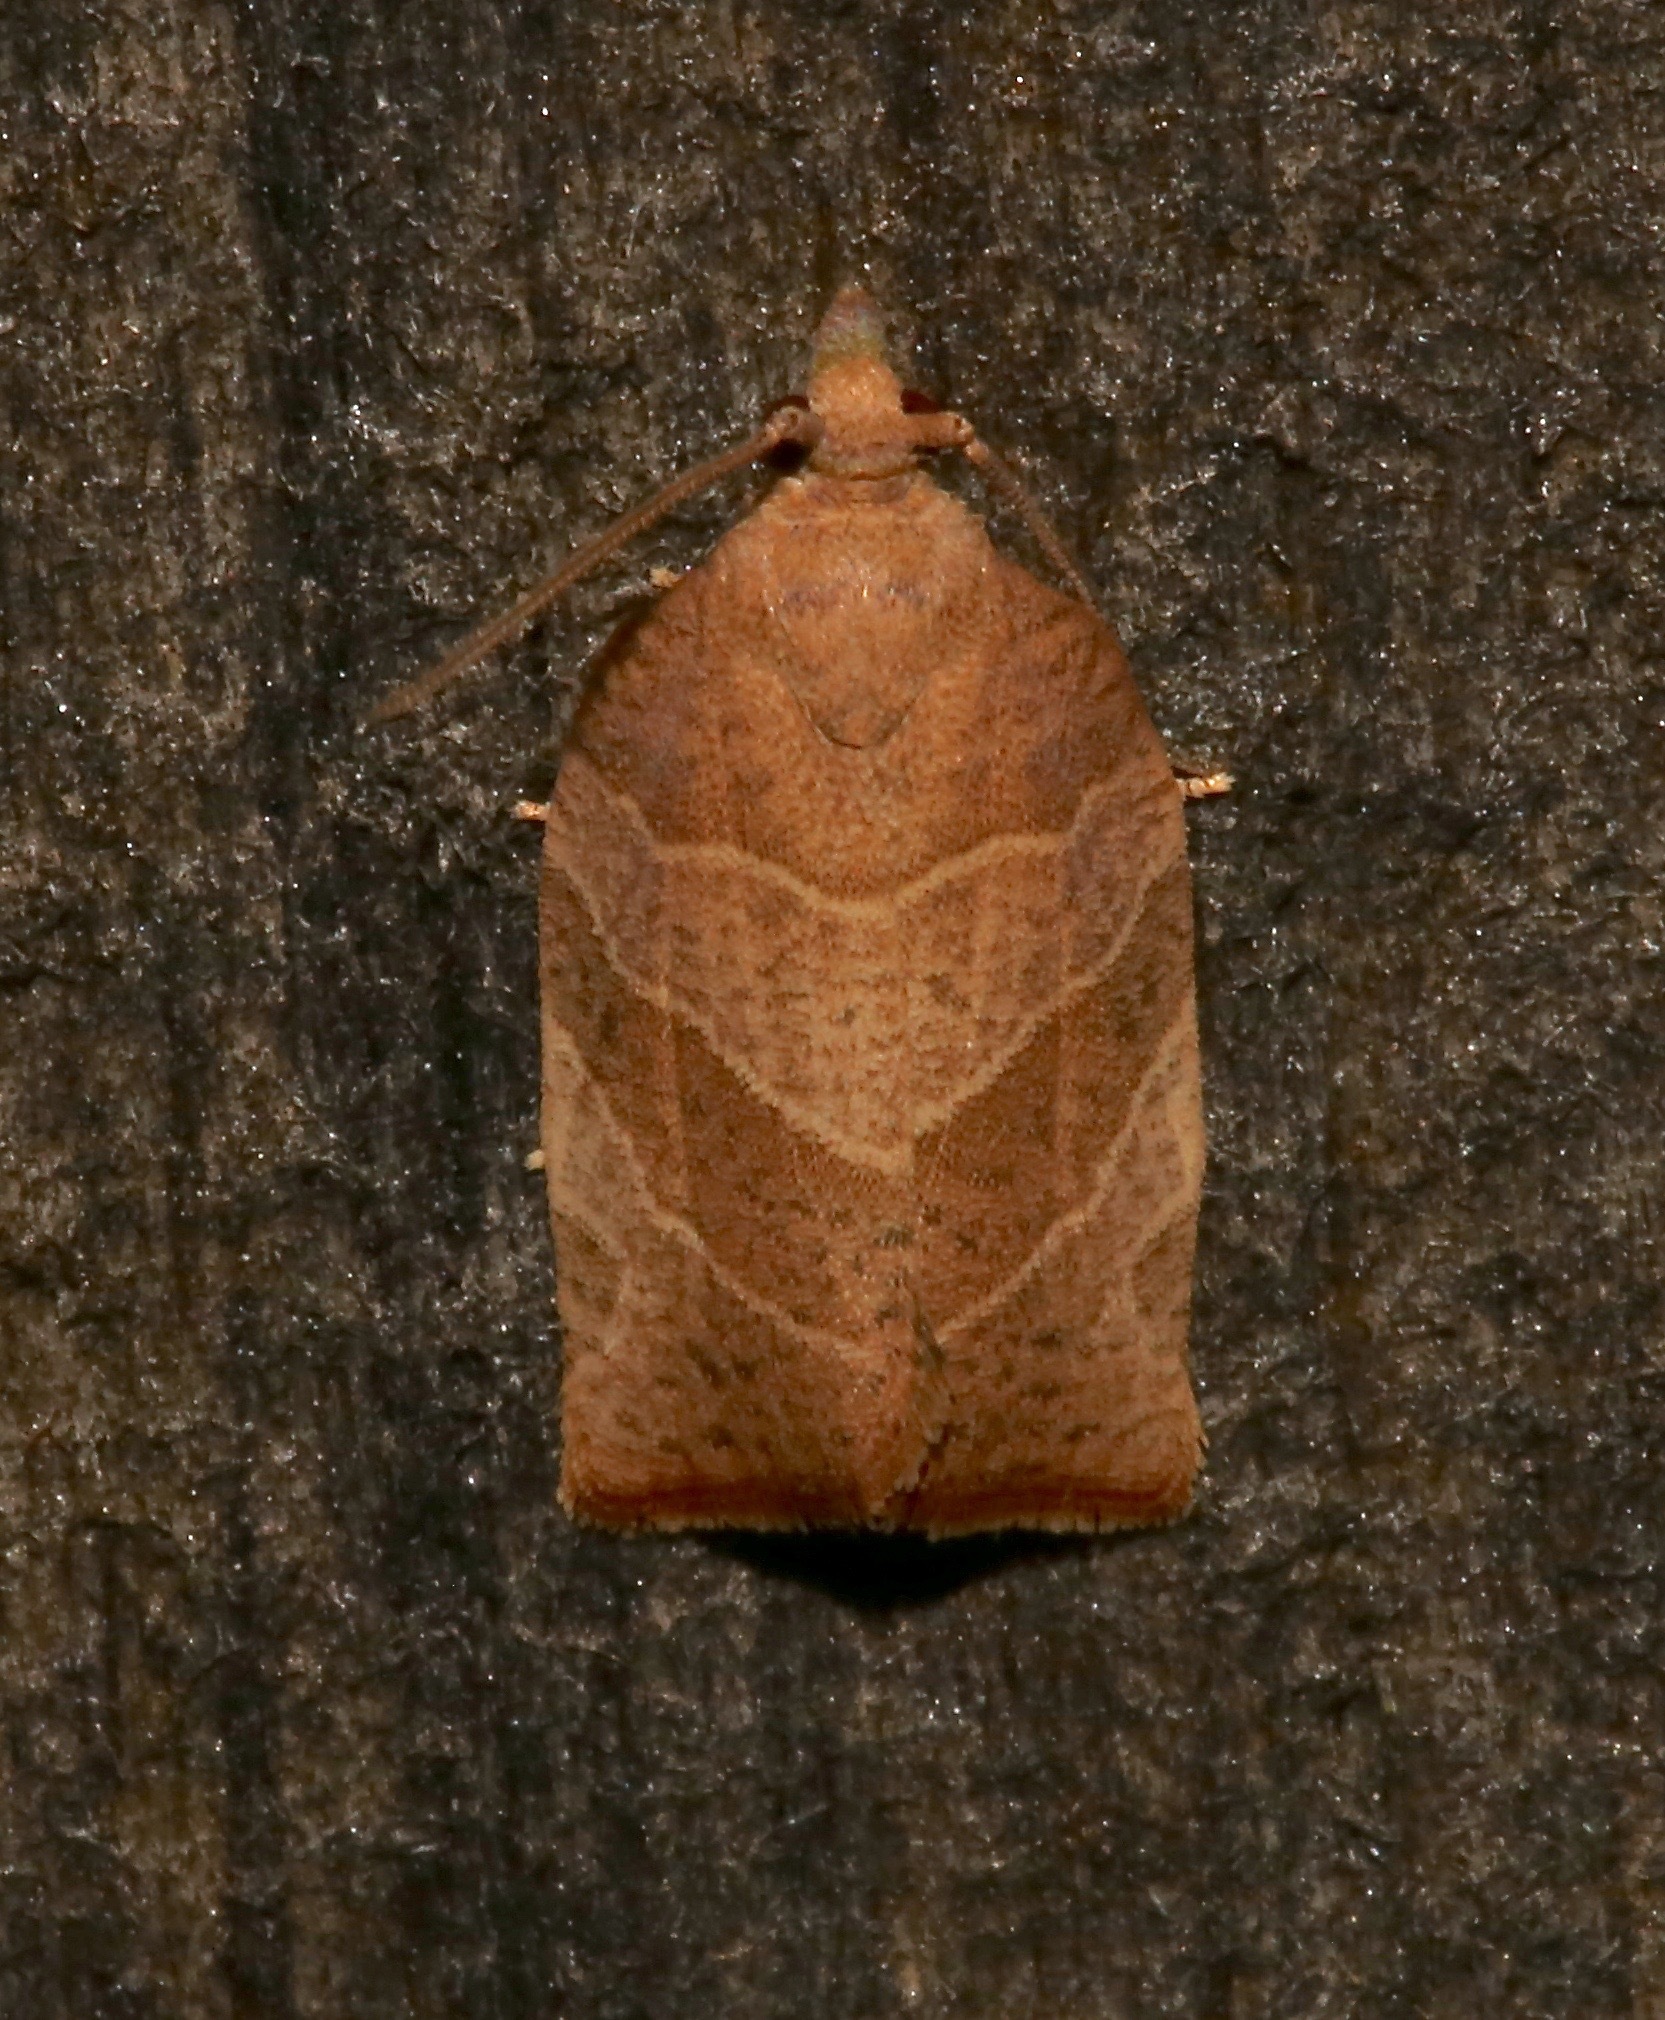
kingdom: Animalia
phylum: Arthropoda
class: Insecta
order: Lepidoptera
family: Tortricidae
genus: Pandemis
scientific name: Pandemis limitata
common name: Three-lined leafroller moth
